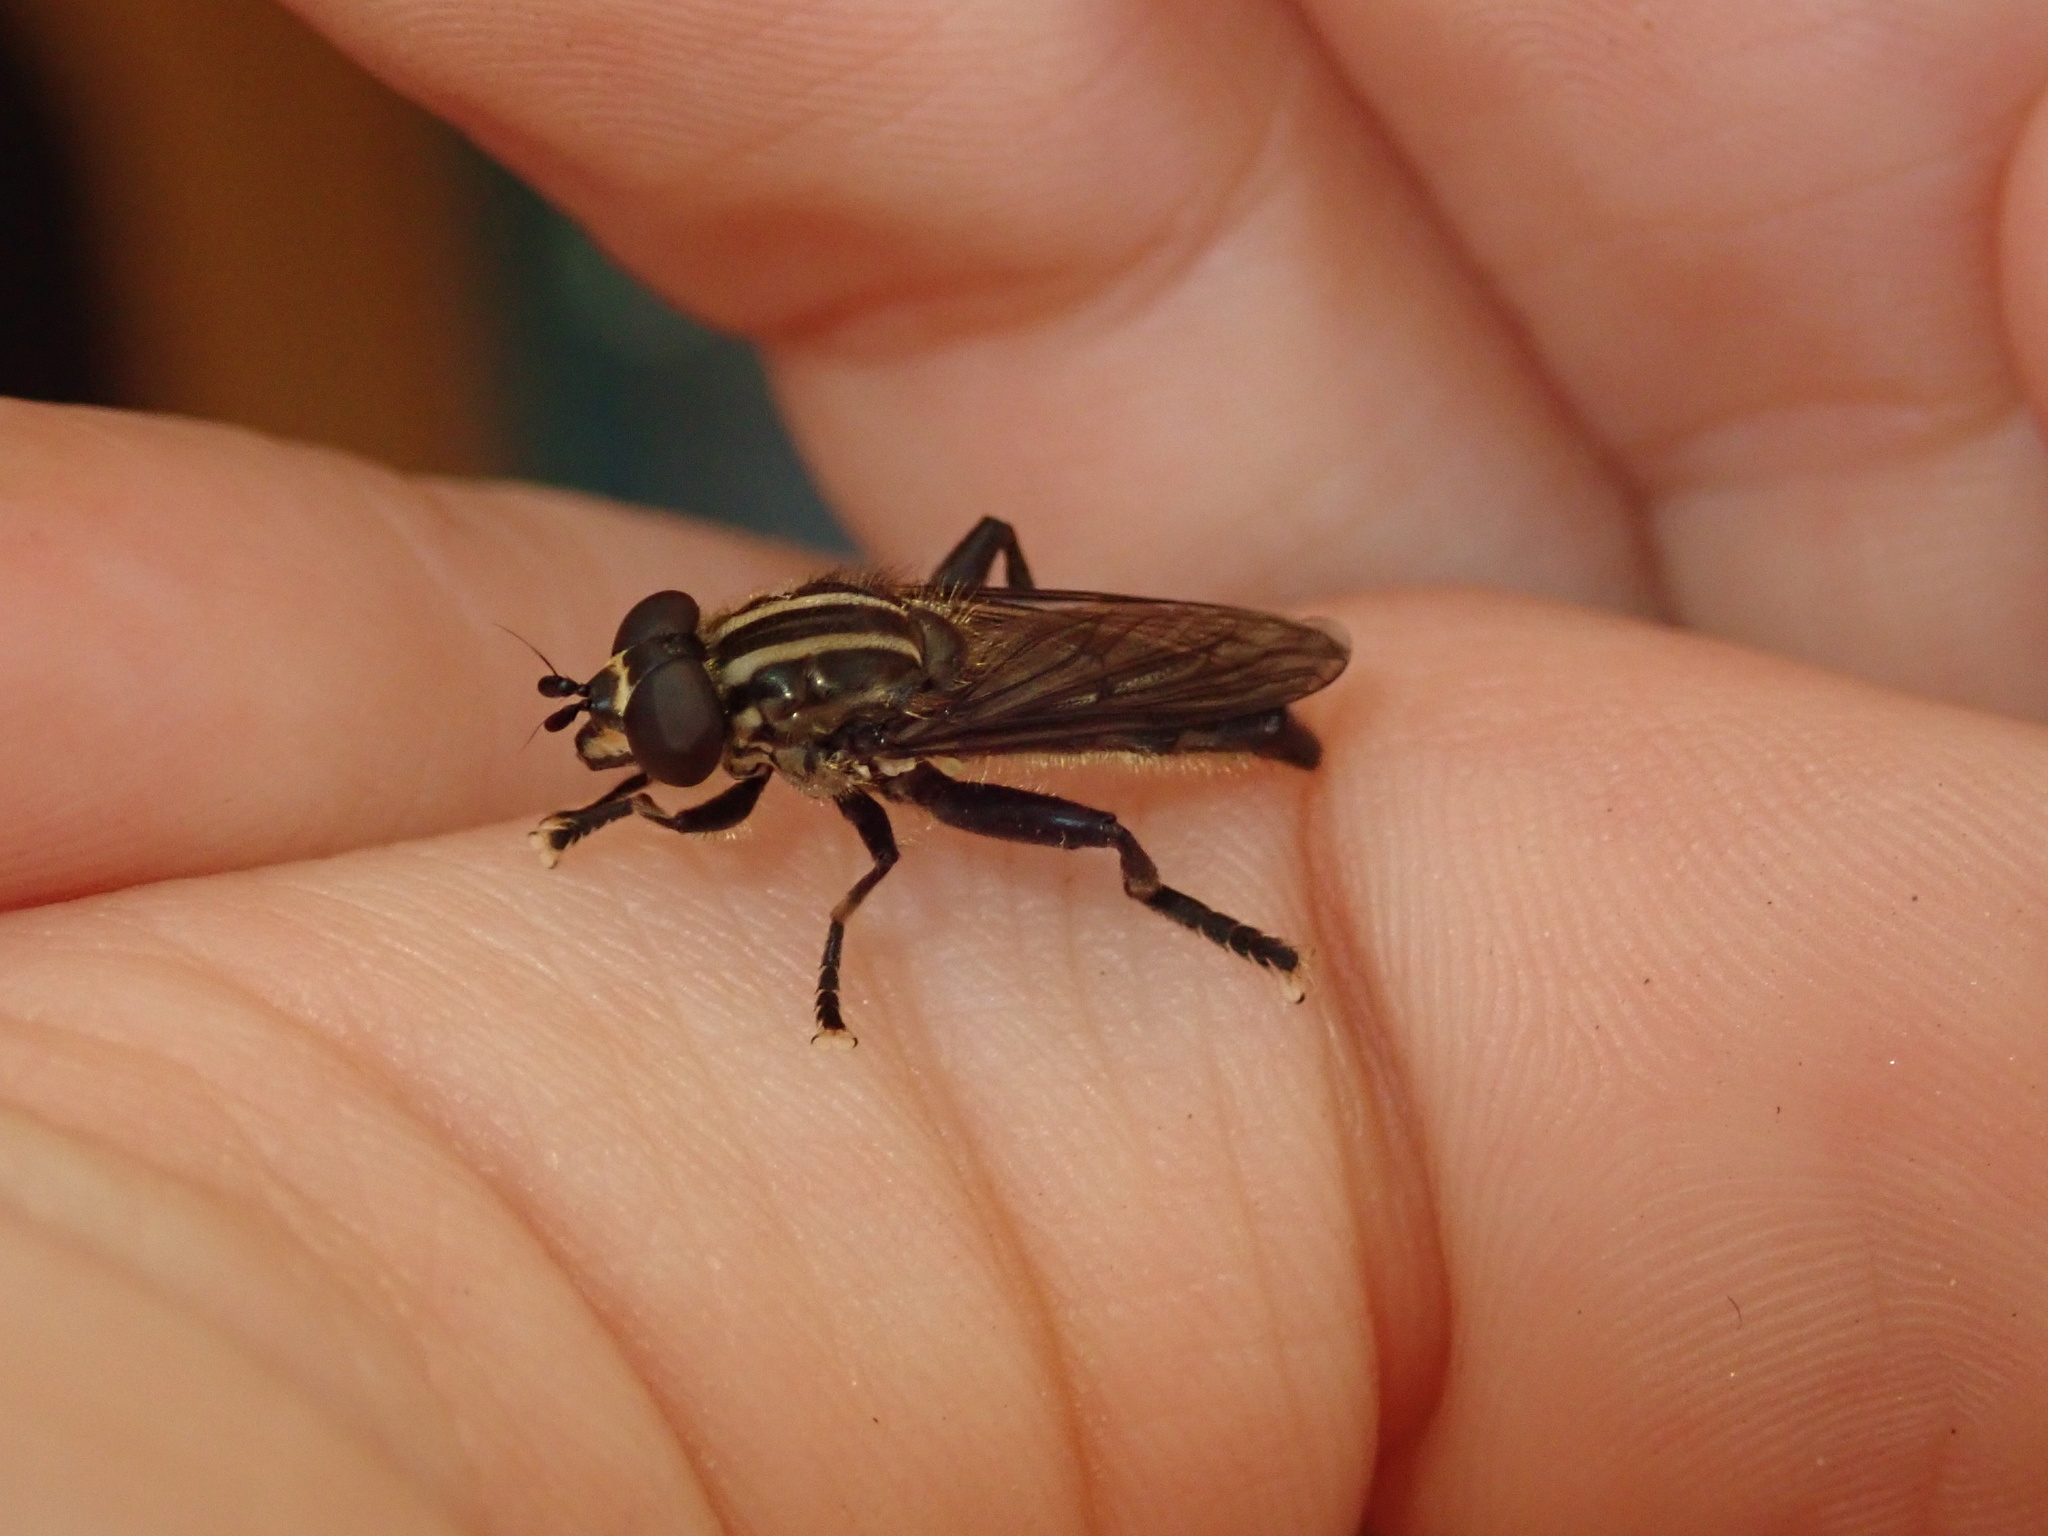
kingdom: Animalia
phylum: Arthropoda
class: Insecta
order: Diptera
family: Syrphidae
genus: Orthoprosopa
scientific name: Orthoprosopa bilineata
